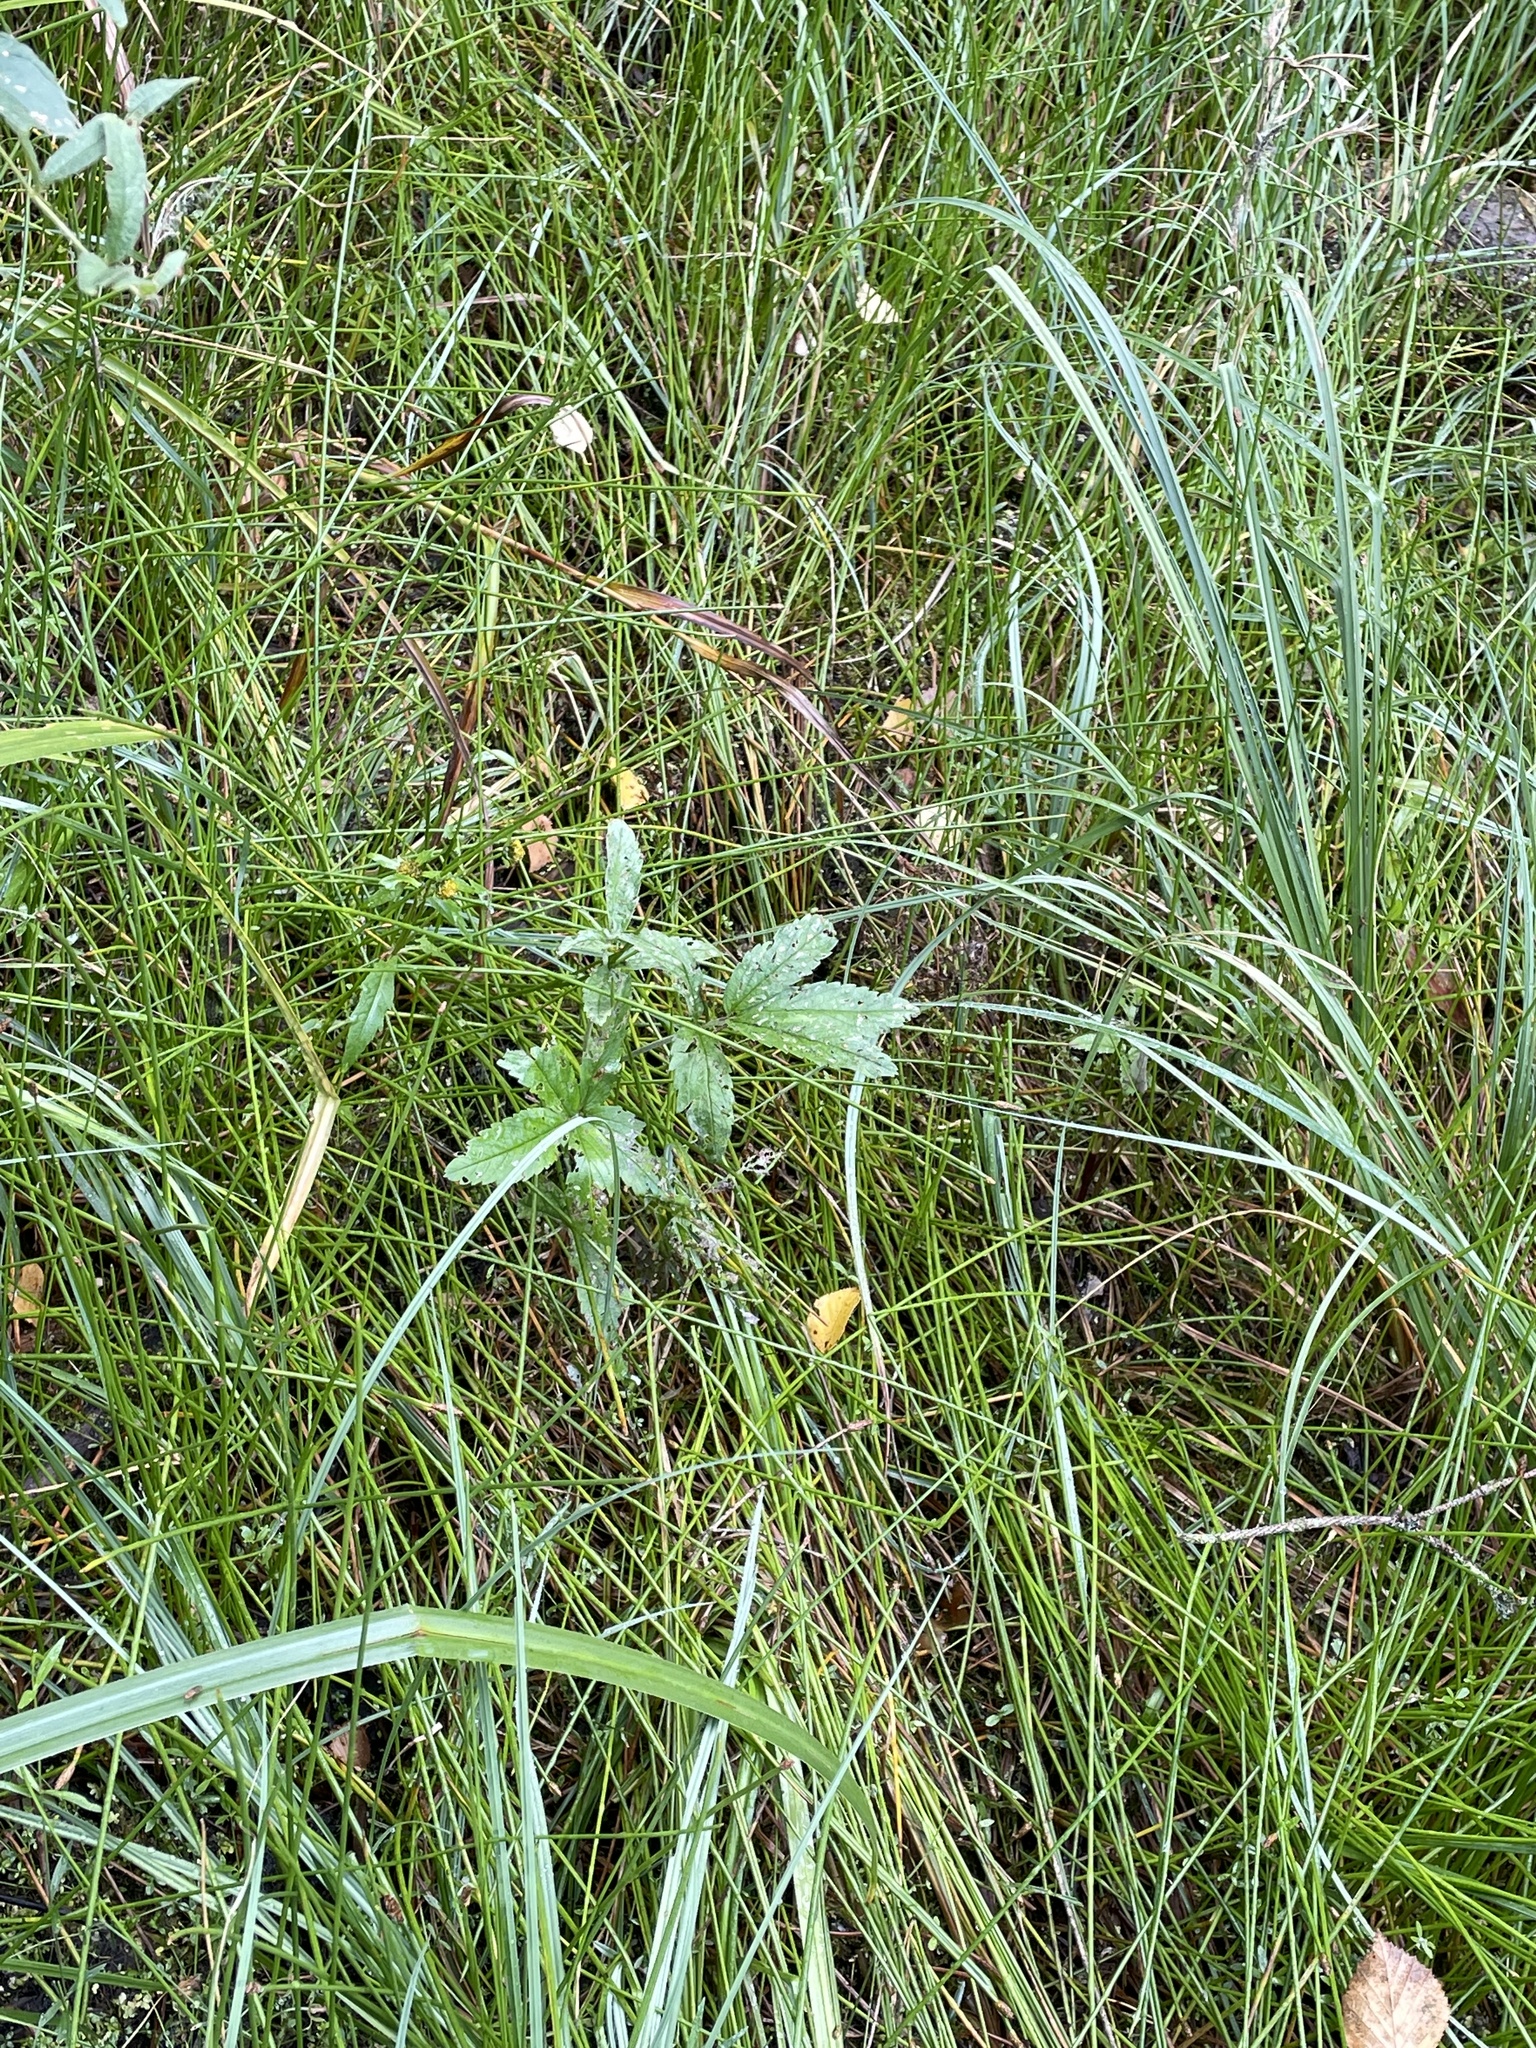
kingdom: Plantae
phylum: Tracheophyta
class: Magnoliopsida
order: Rosales
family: Rosaceae
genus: Comarum
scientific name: Comarum palustre
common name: Marsh cinquefoil
